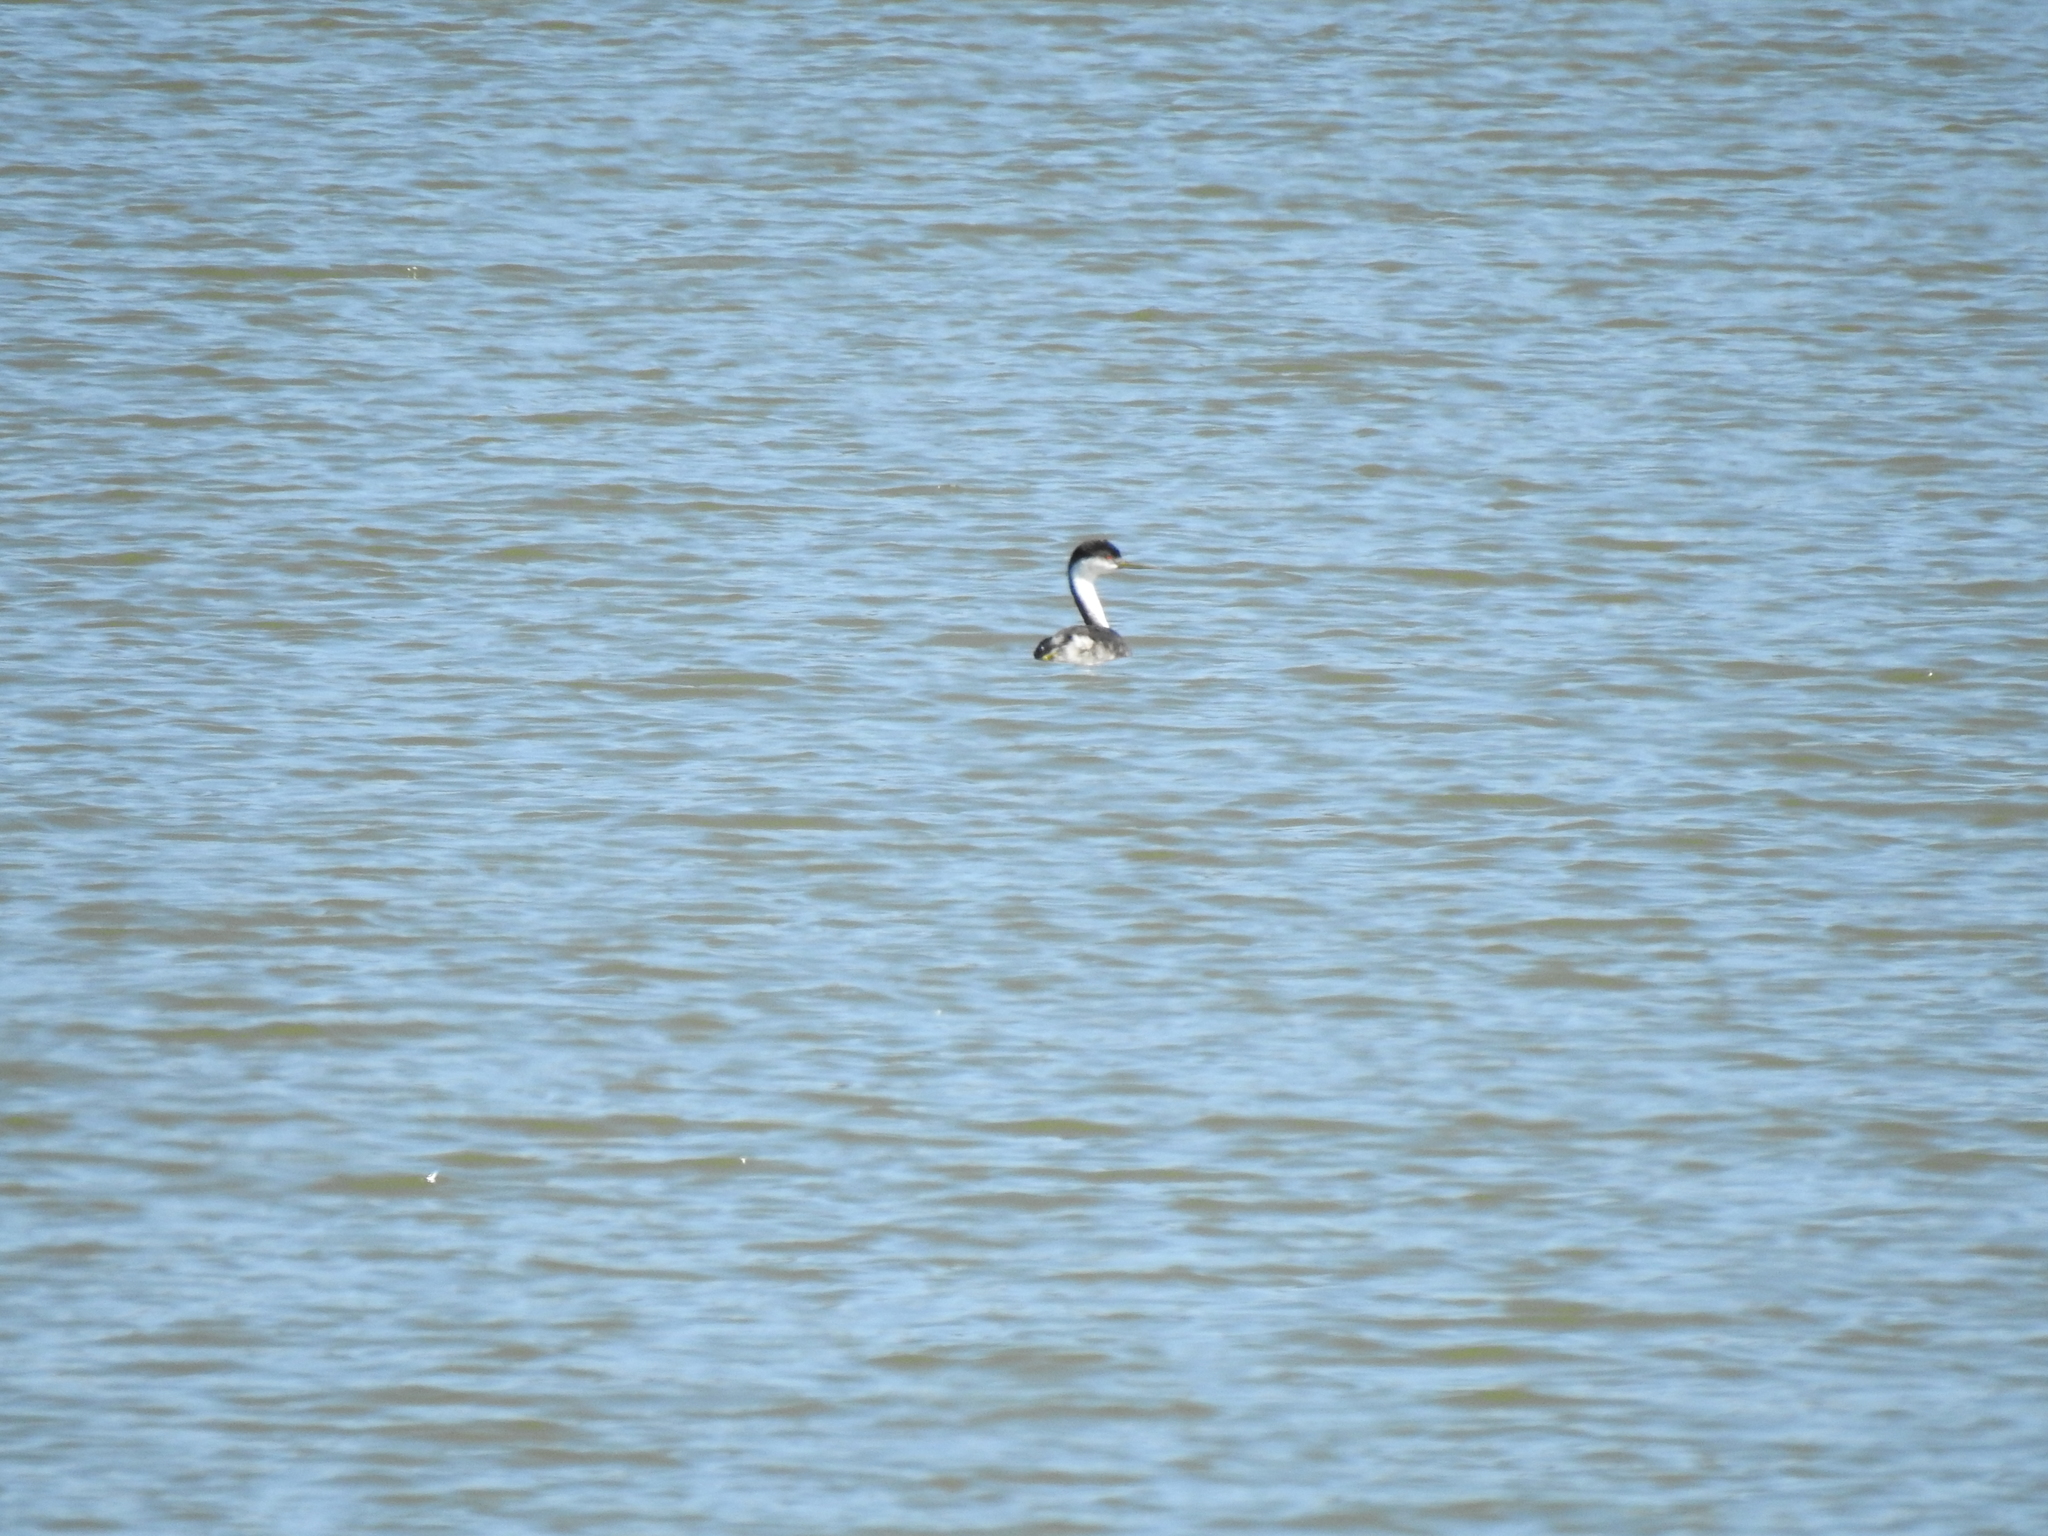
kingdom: Animalia
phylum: Chordata
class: Aves
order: Podicipediformes
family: Podicipedidae
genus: Aechmophorus
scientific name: Aechmophorus occidentalis
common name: Western grebe
